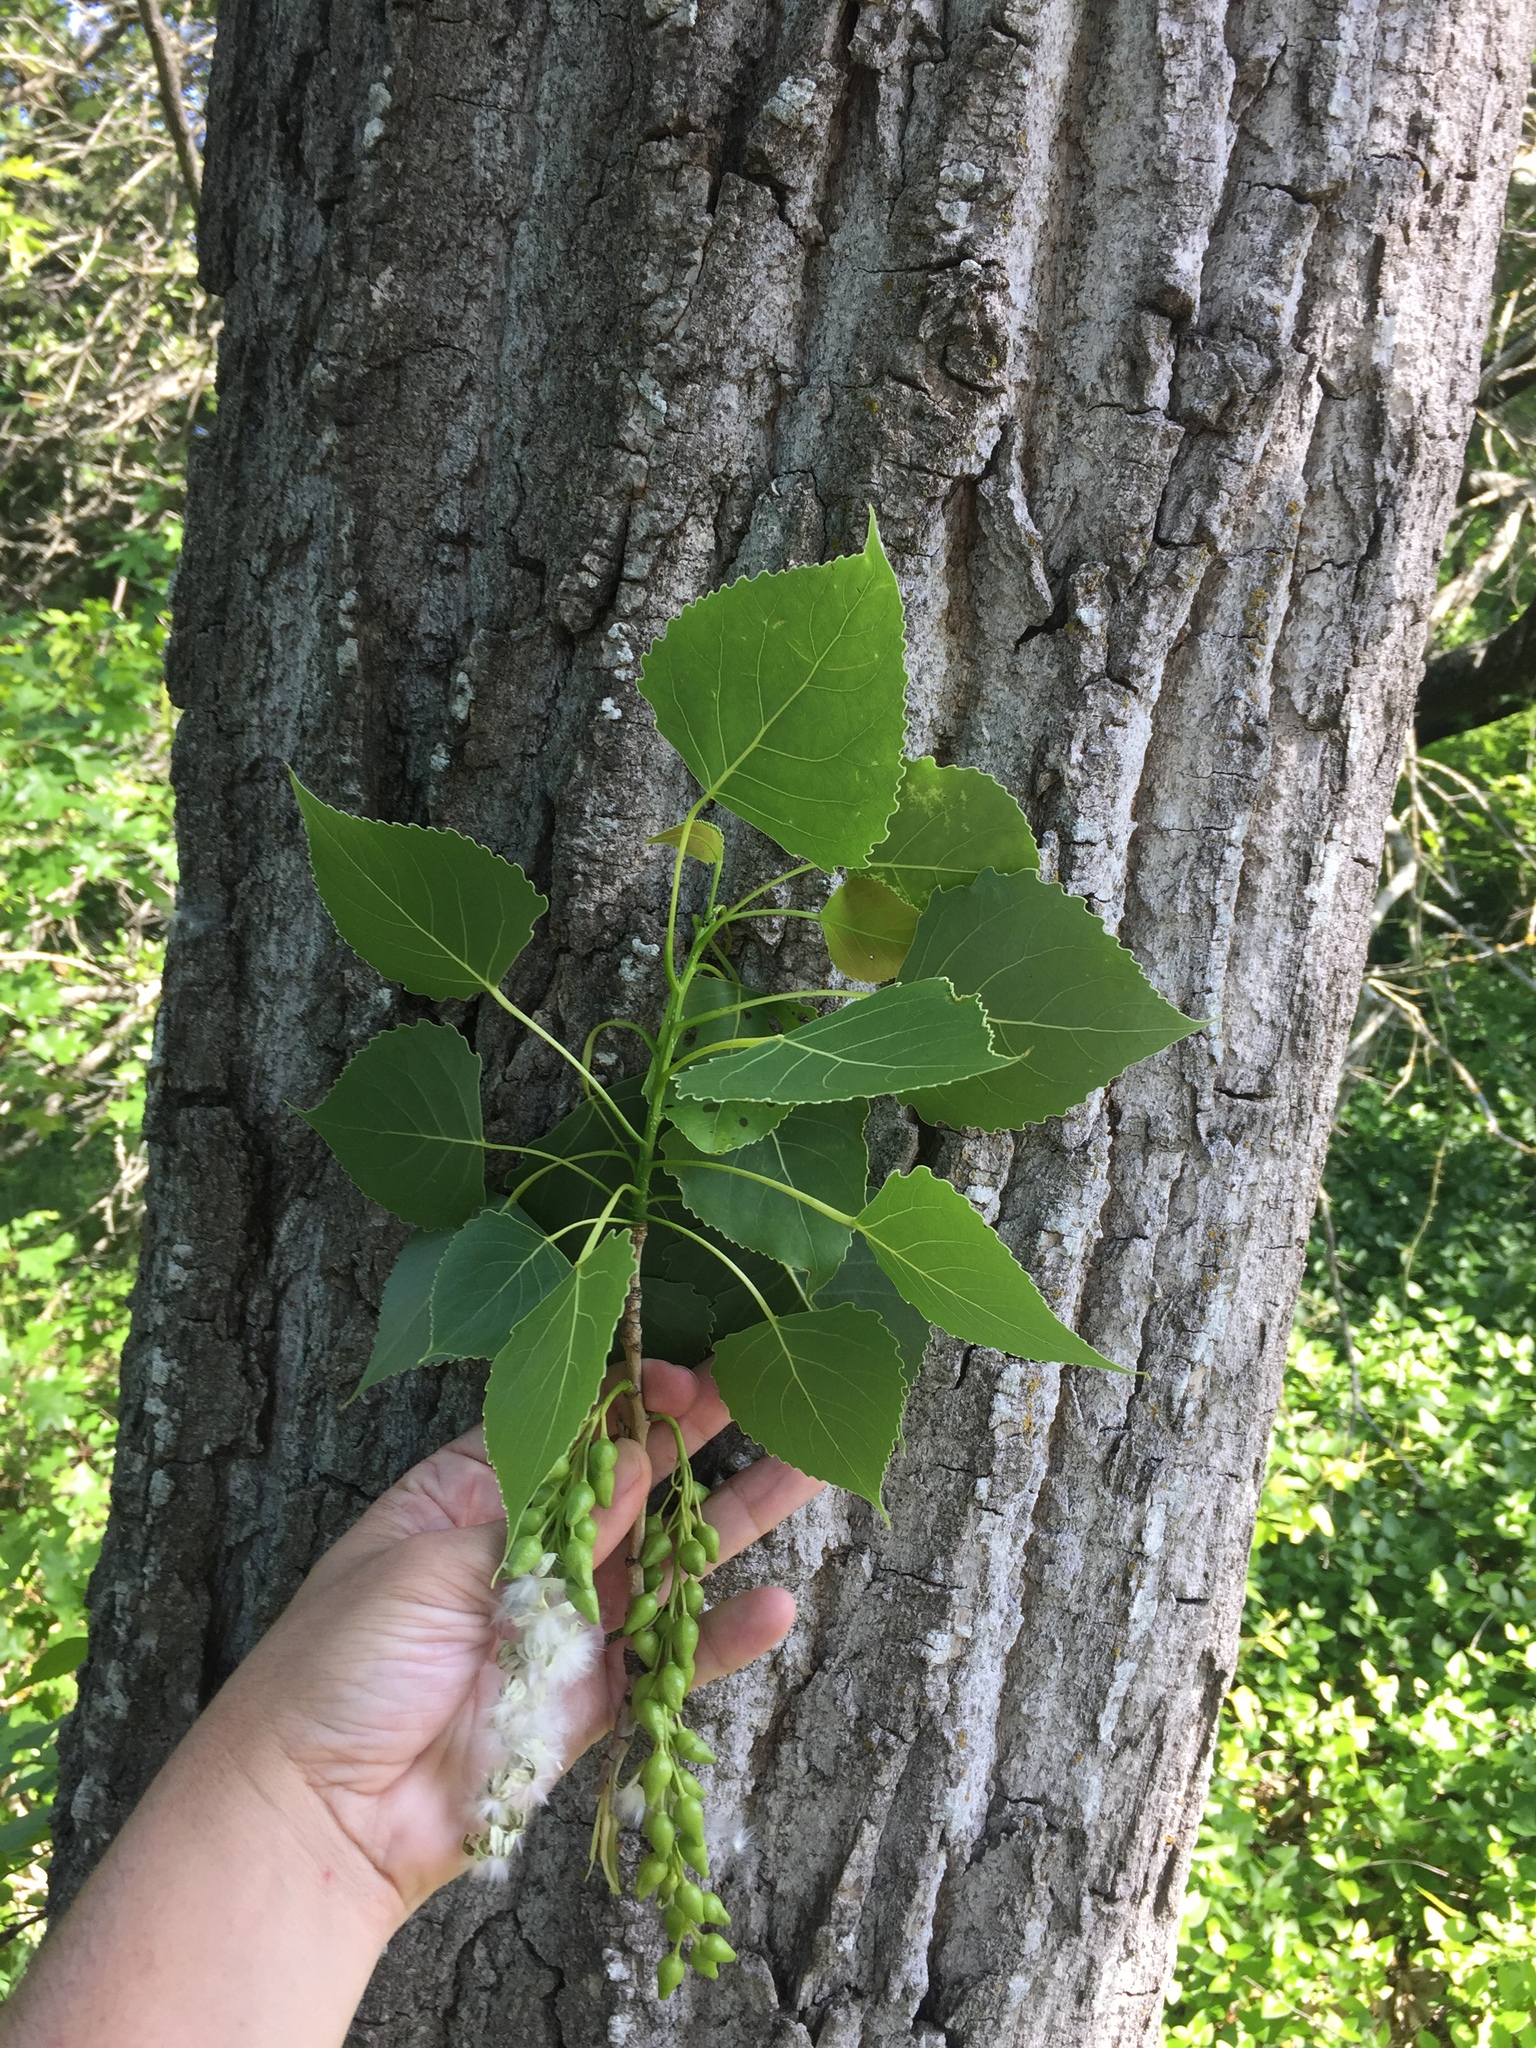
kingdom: Plantae
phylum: Tracheophyta
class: Magnoliopsida
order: Malpighiales
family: Salicaceae
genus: Populus
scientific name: Populus deltoides
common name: Eastern cottonwood
